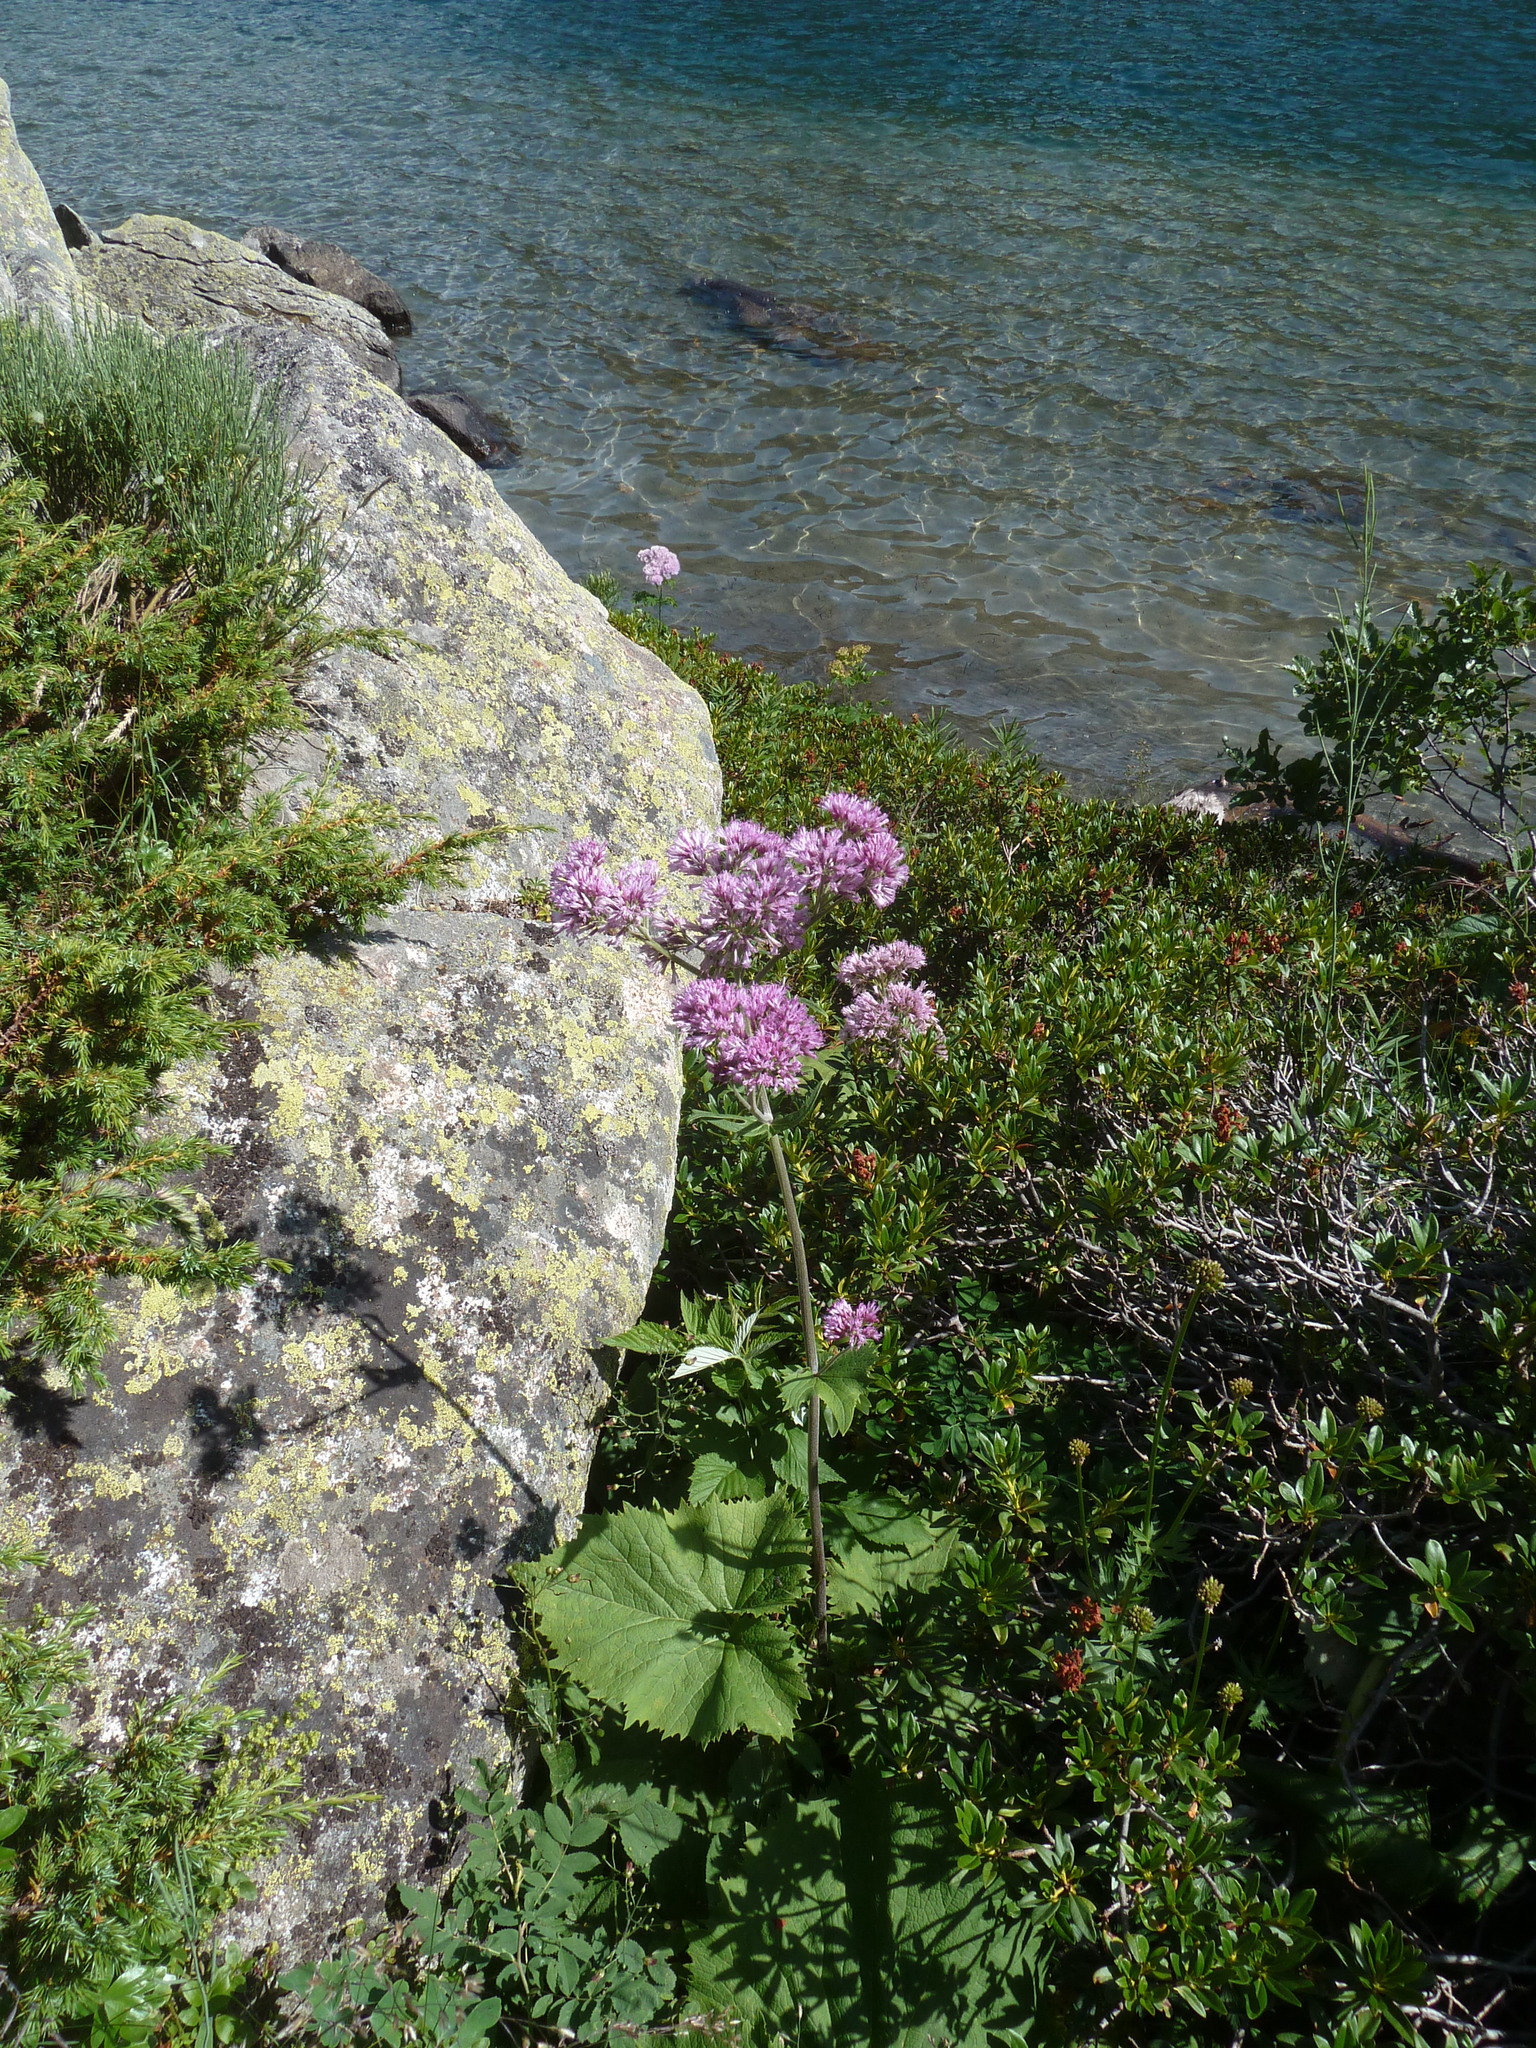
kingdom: Plantae
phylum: Tracheophyta
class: Magnoliopsida
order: Asterales
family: Asteraceae
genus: Adenostyles
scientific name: Adenostyles alliariae
